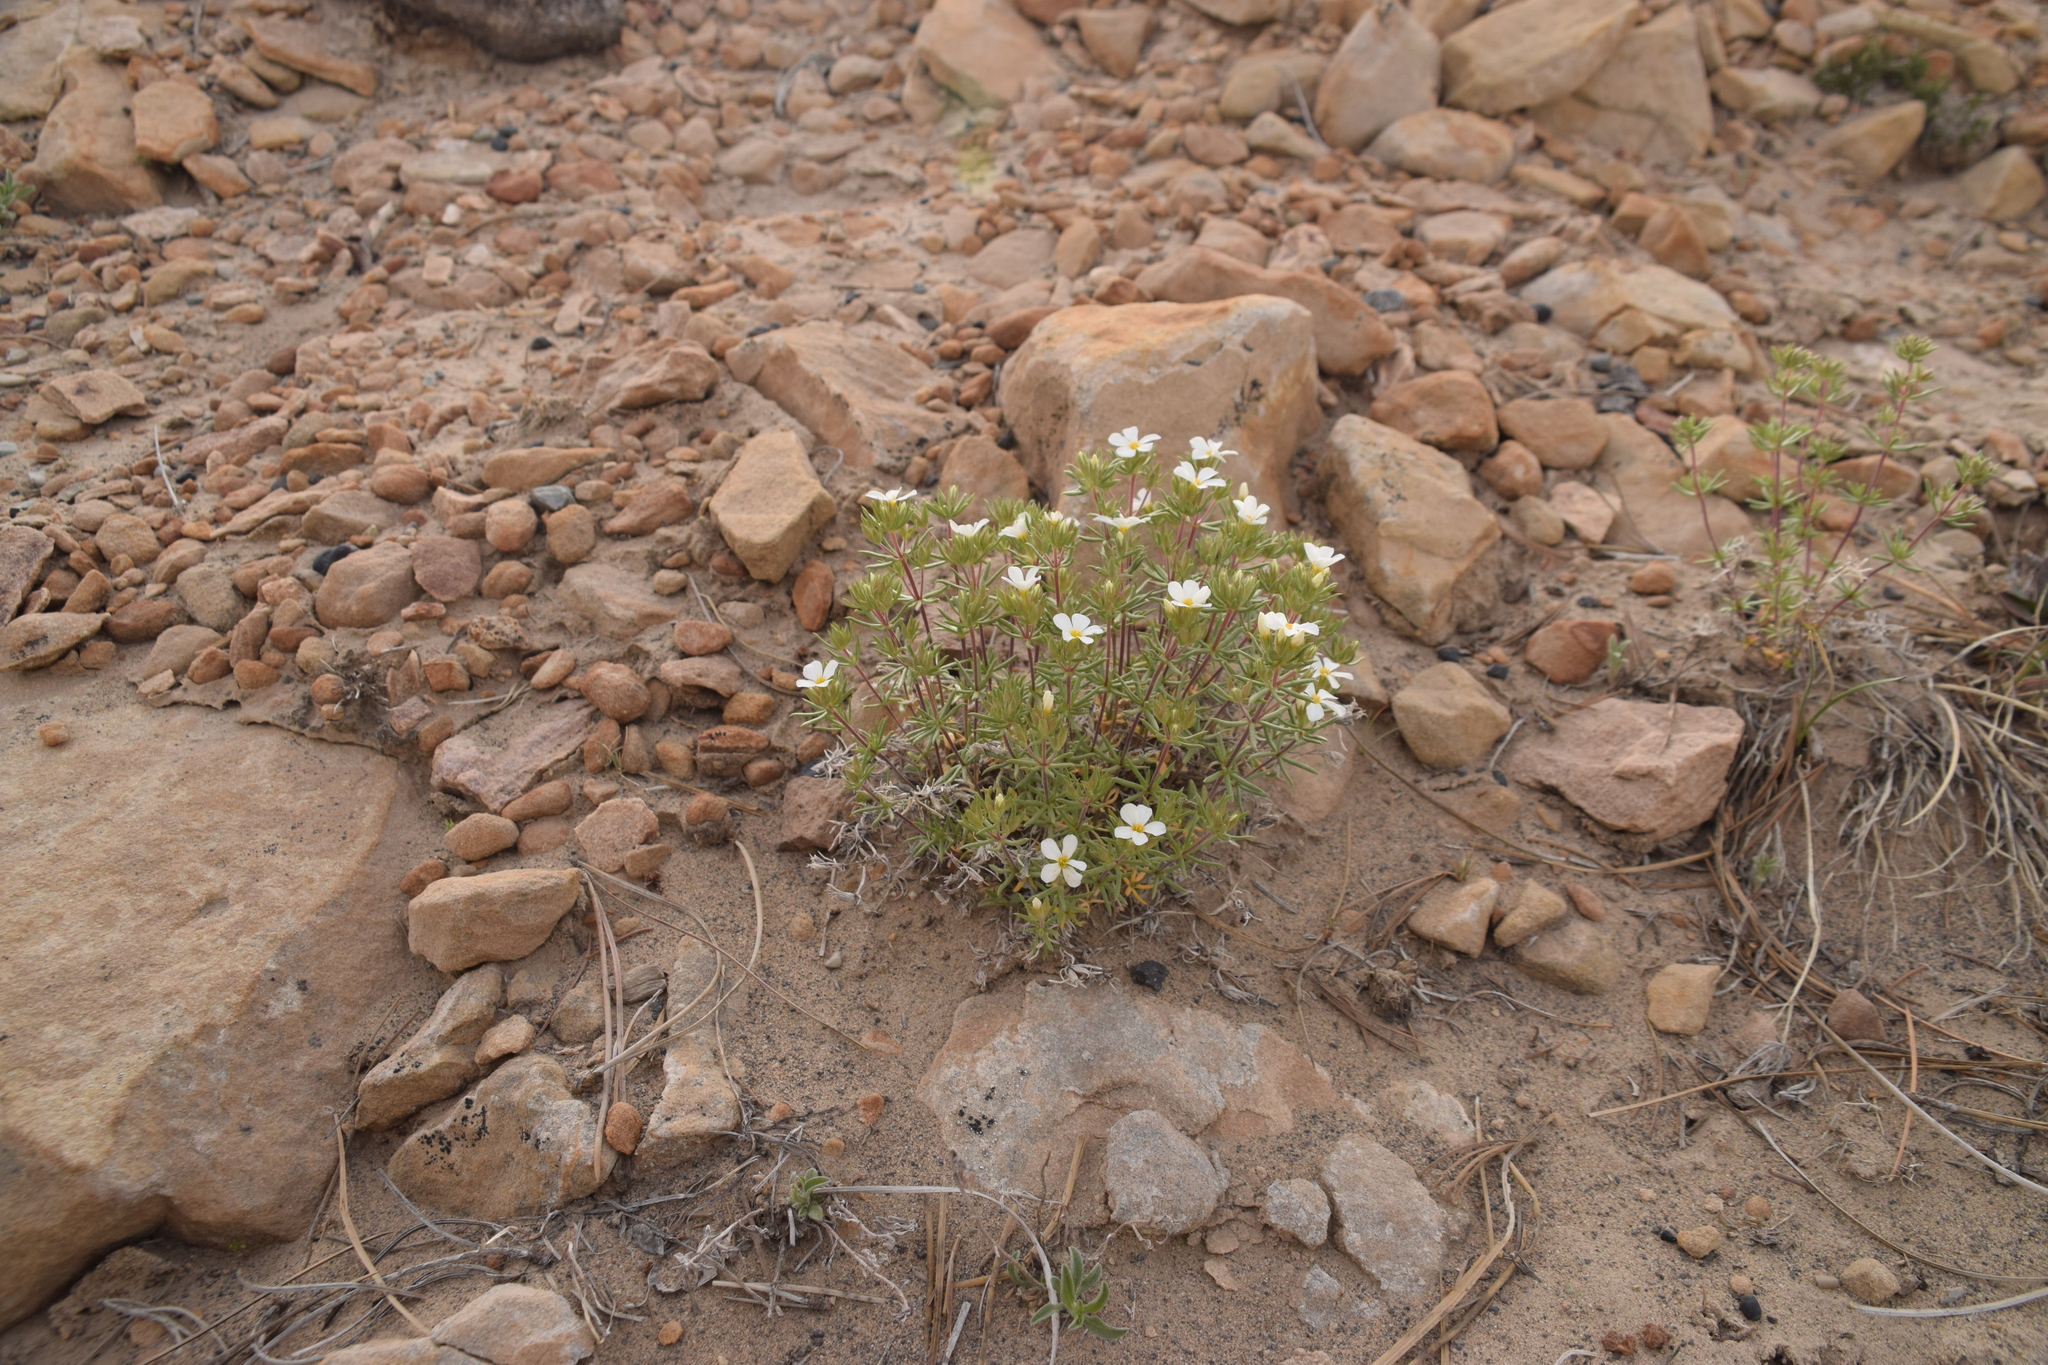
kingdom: Plantae
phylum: Tracheophyta
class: Magnoliopsida
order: Ericales
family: Polemoniaceae
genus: Leptosiphon
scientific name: Leptosiphon nuttallii
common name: Nuttall's linanthus
